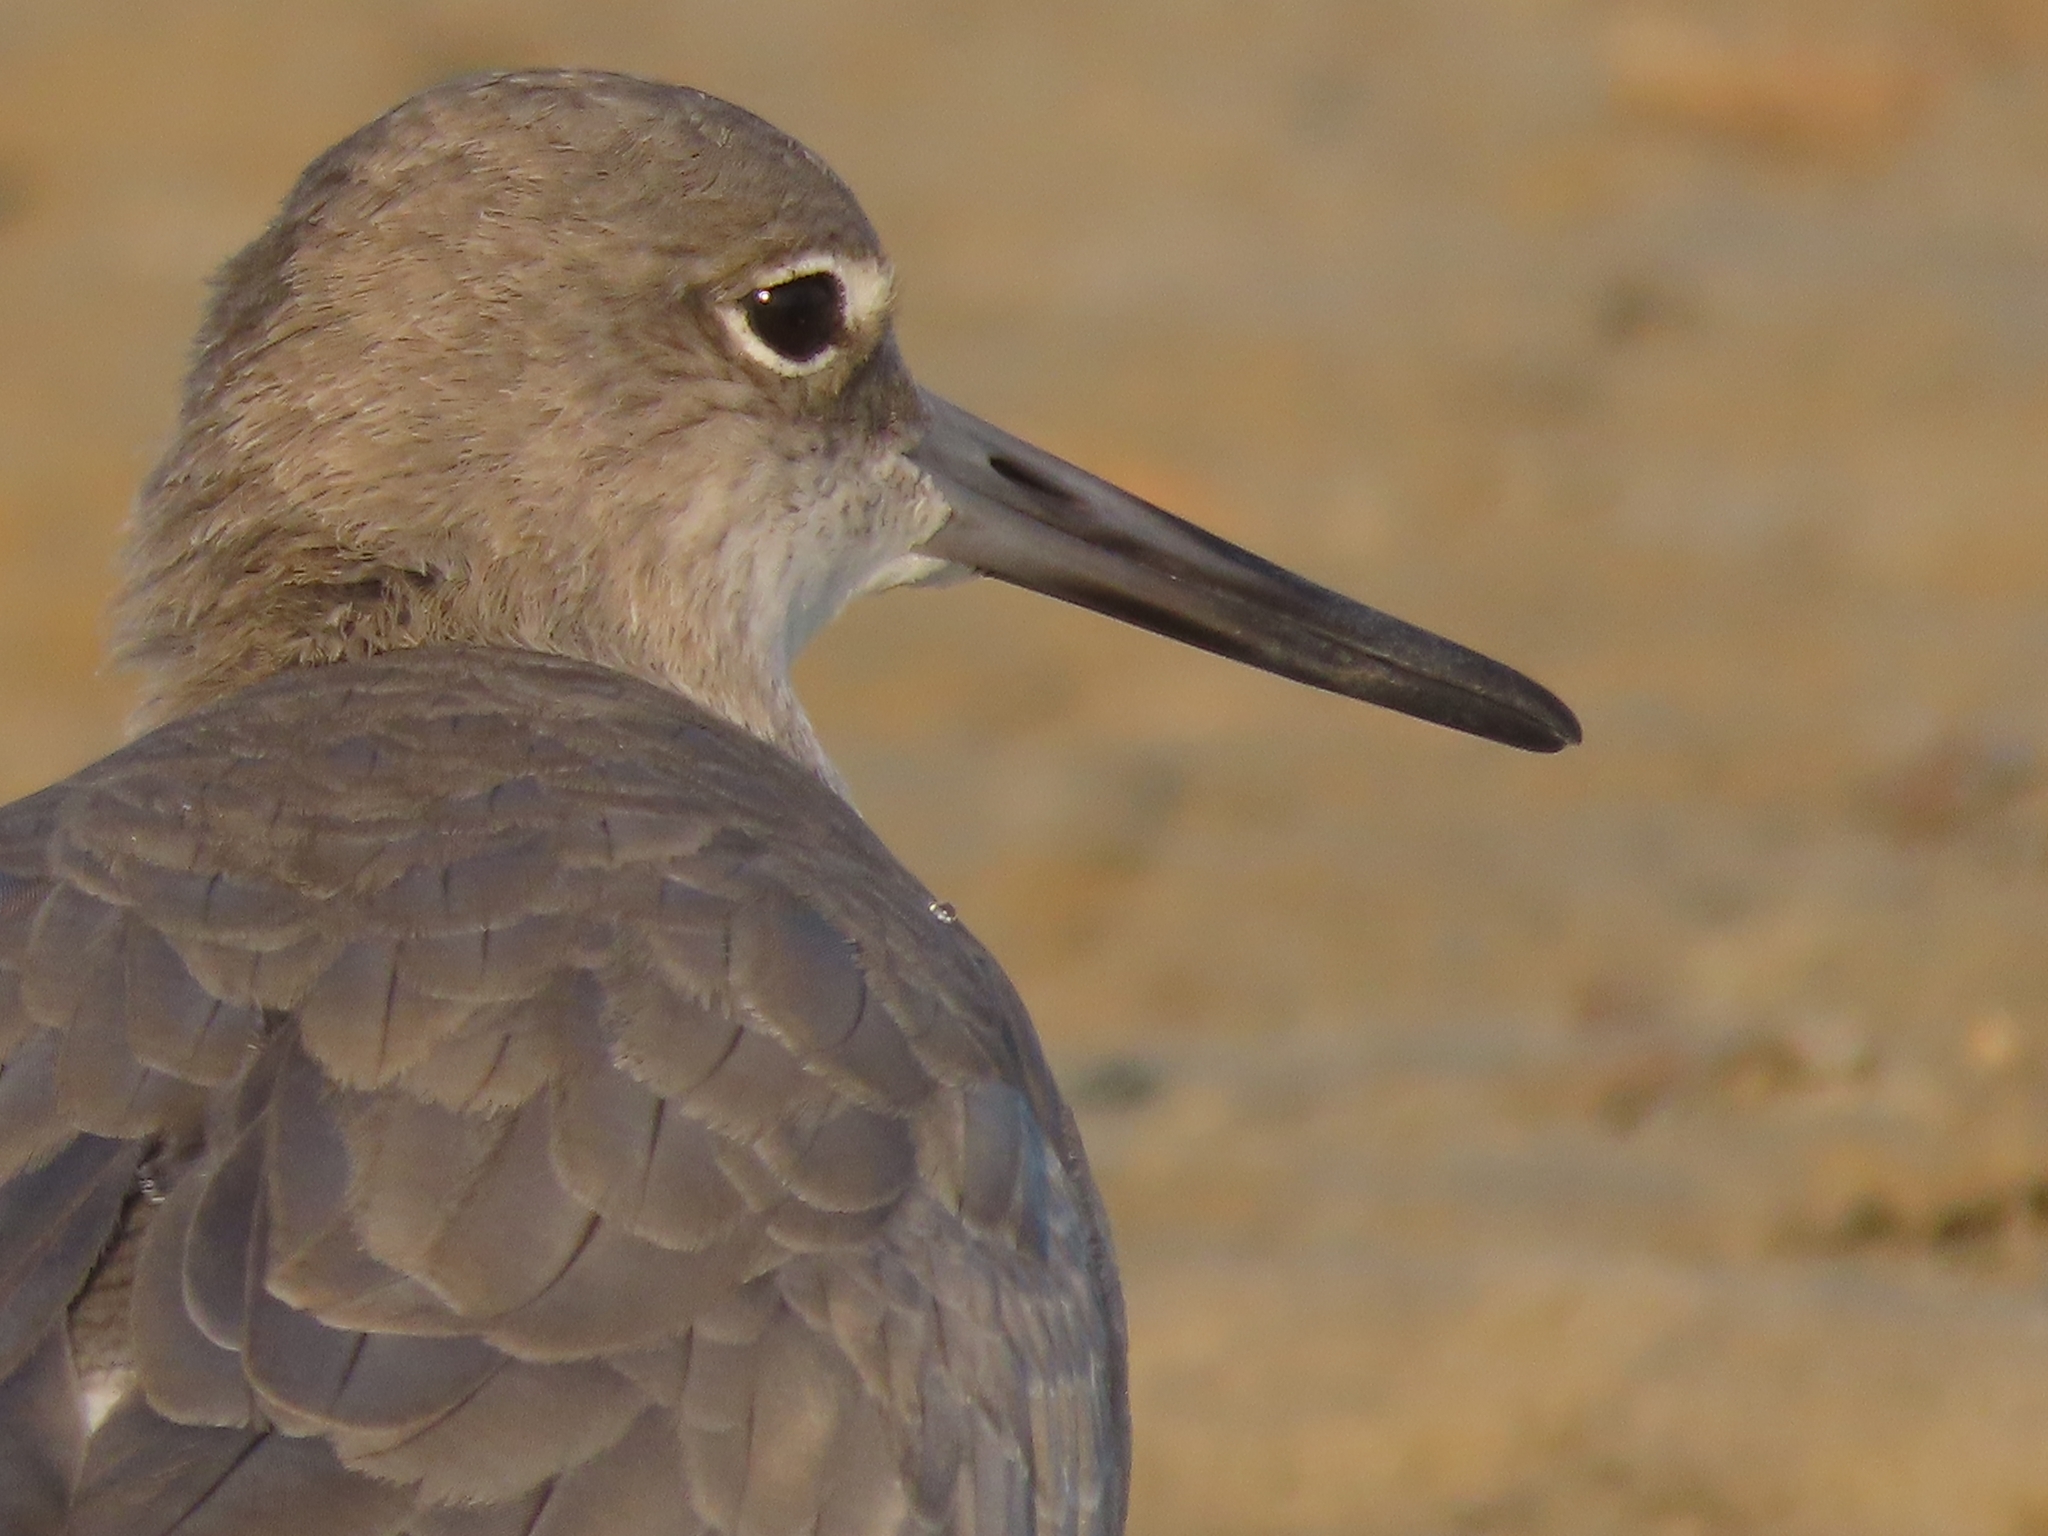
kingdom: Animalia
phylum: Chordata
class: Aves
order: Charadriiformes
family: Scolopacidae
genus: Tringa
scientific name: Tringa semipalmata
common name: Willet
